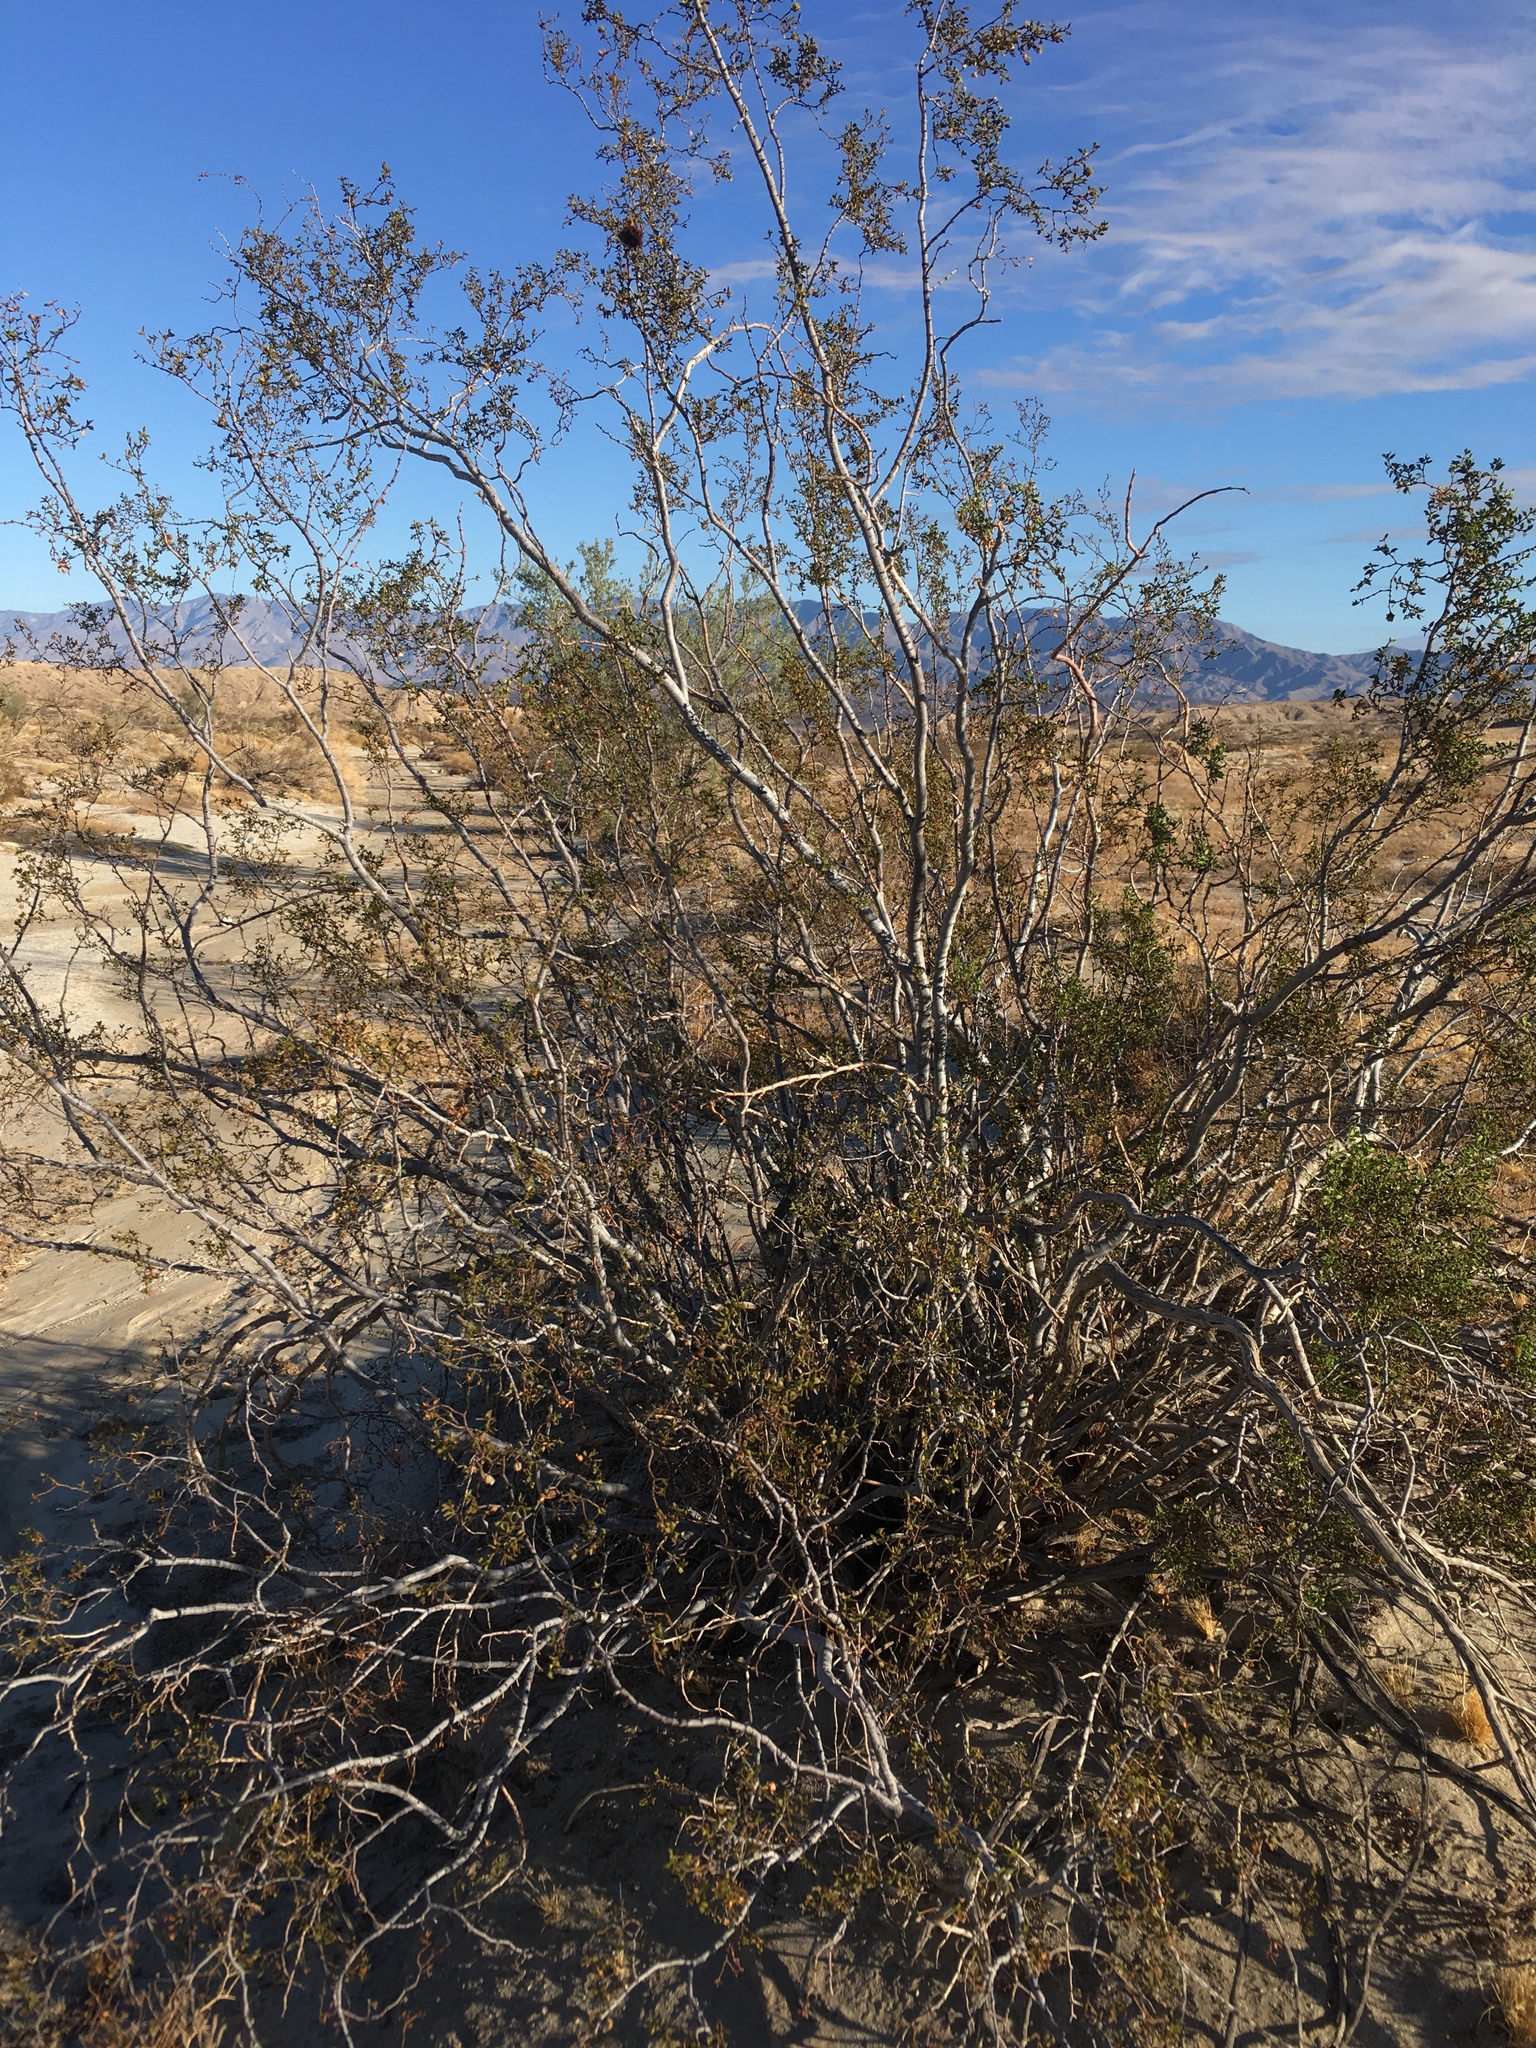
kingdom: Plantae
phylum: Tracheophyta
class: Magnoliopsida
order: Zygophyllales
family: Zygophyllaceae
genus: Larrea
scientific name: Larrea tridentata
